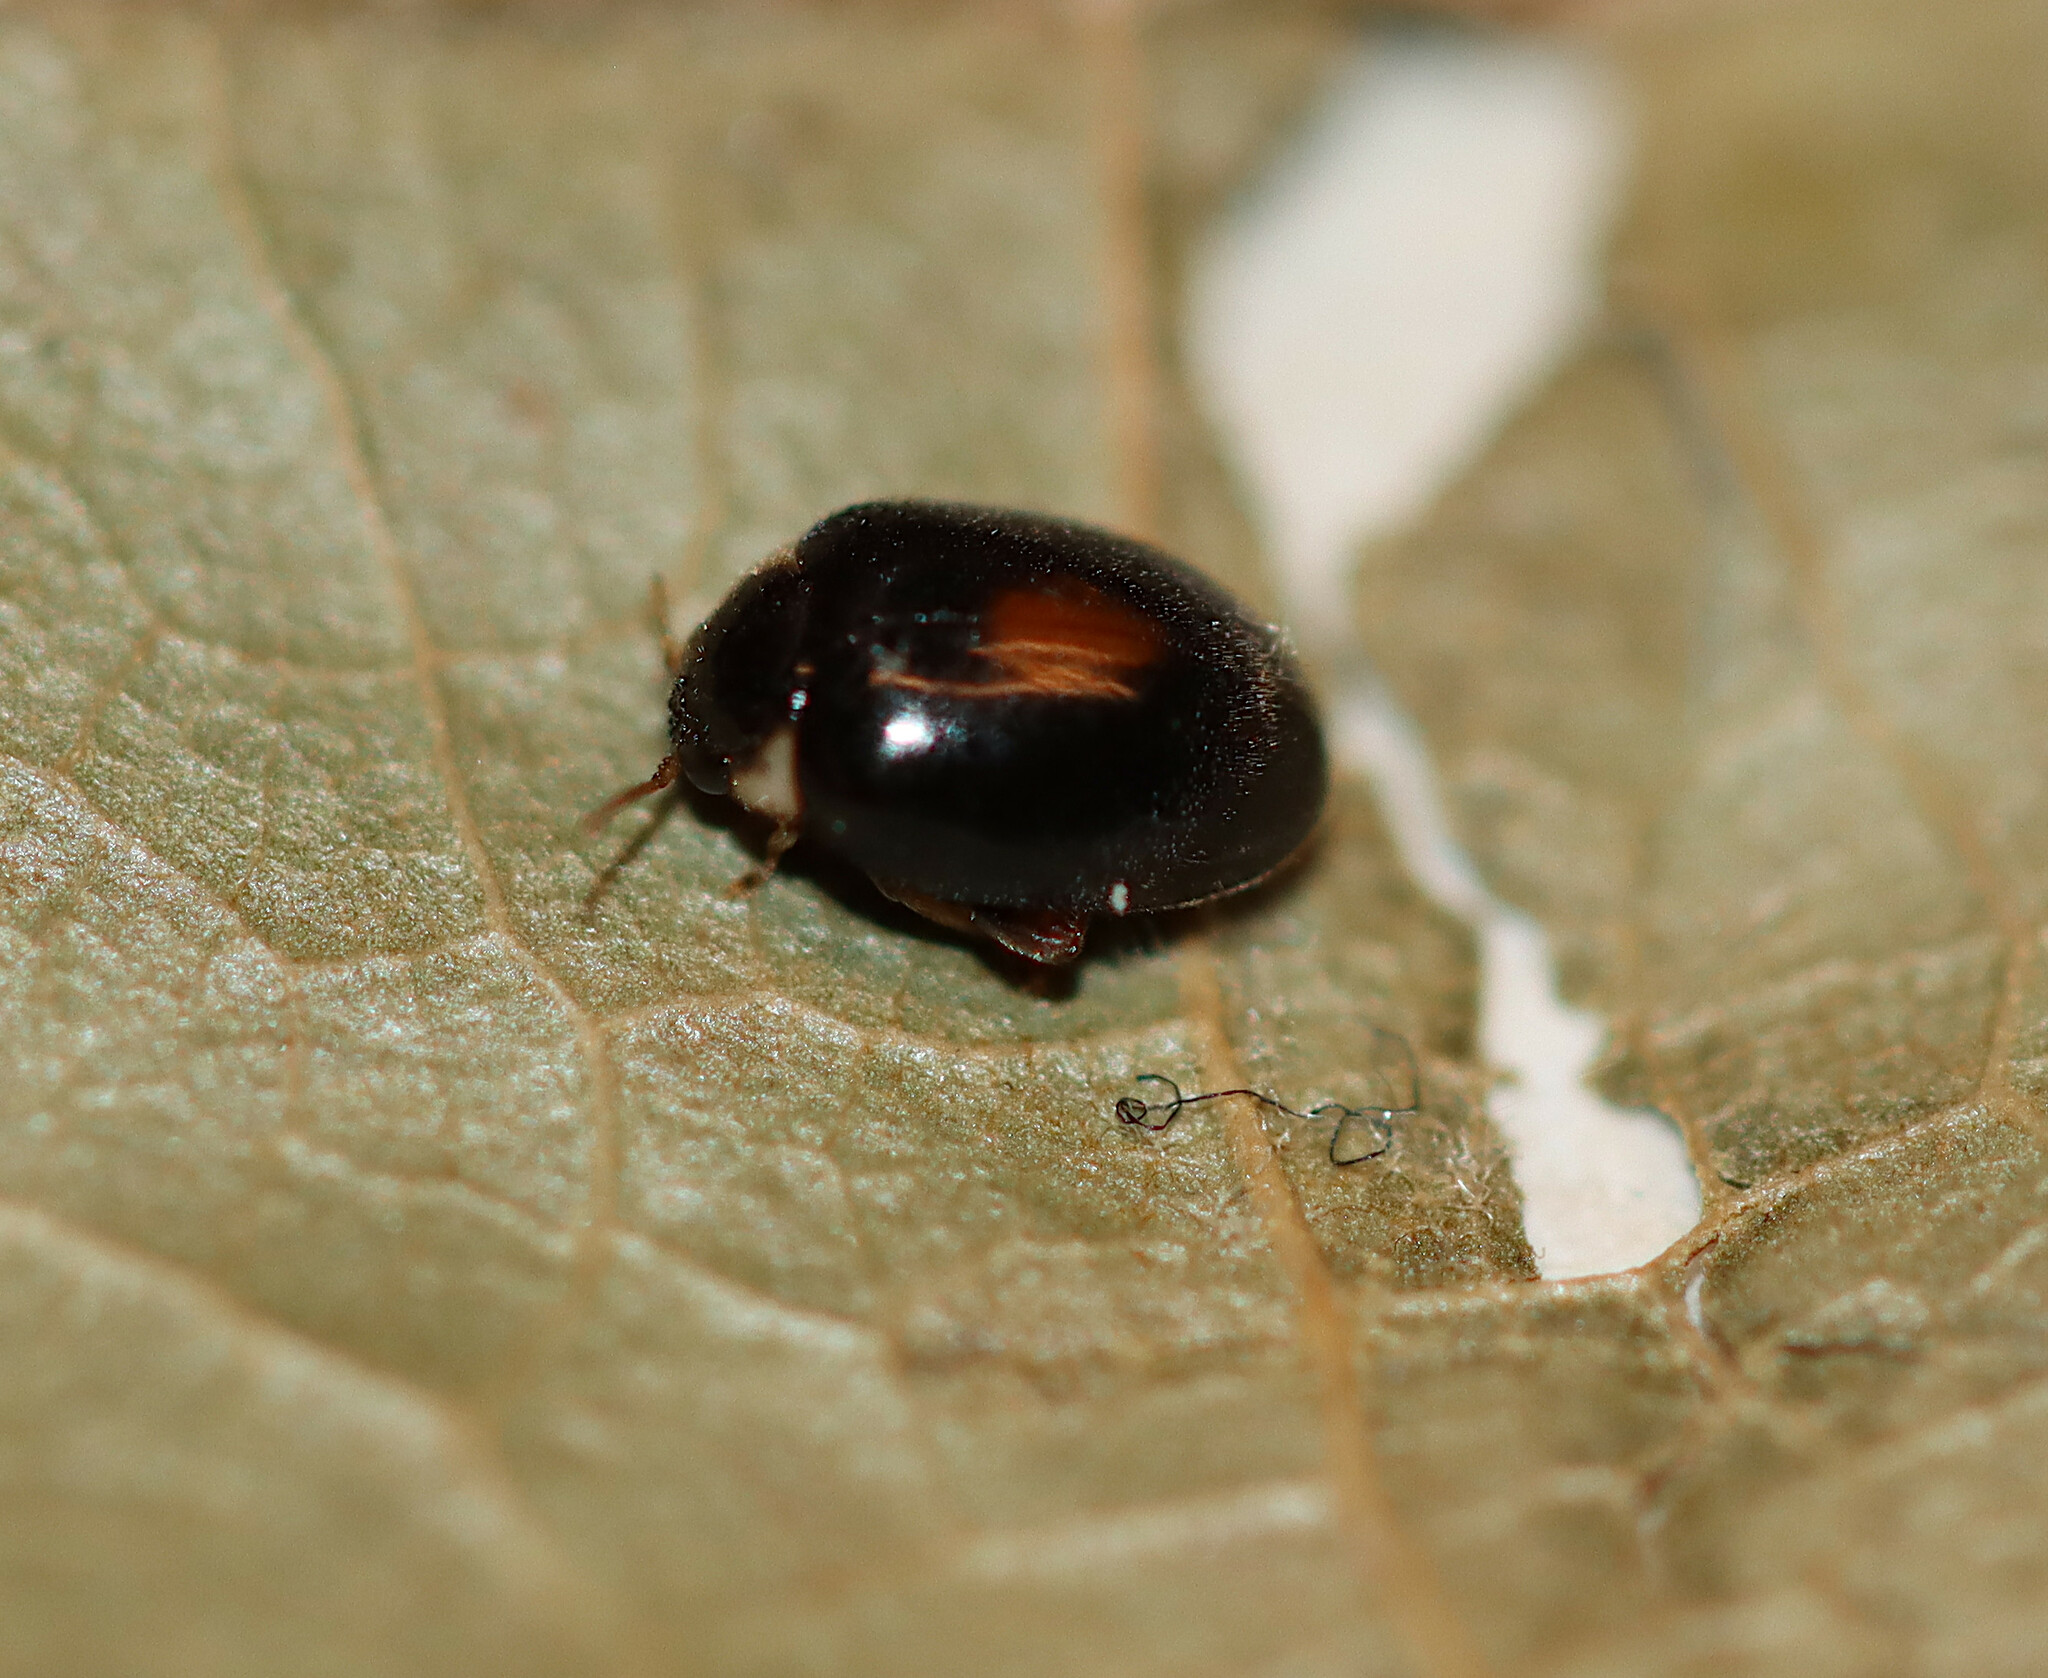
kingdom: Animalia
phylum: Arthropoda
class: Insecta
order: Coleoptera
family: Scirtidae
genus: Scirtes
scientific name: Scirtes orbiculatus
